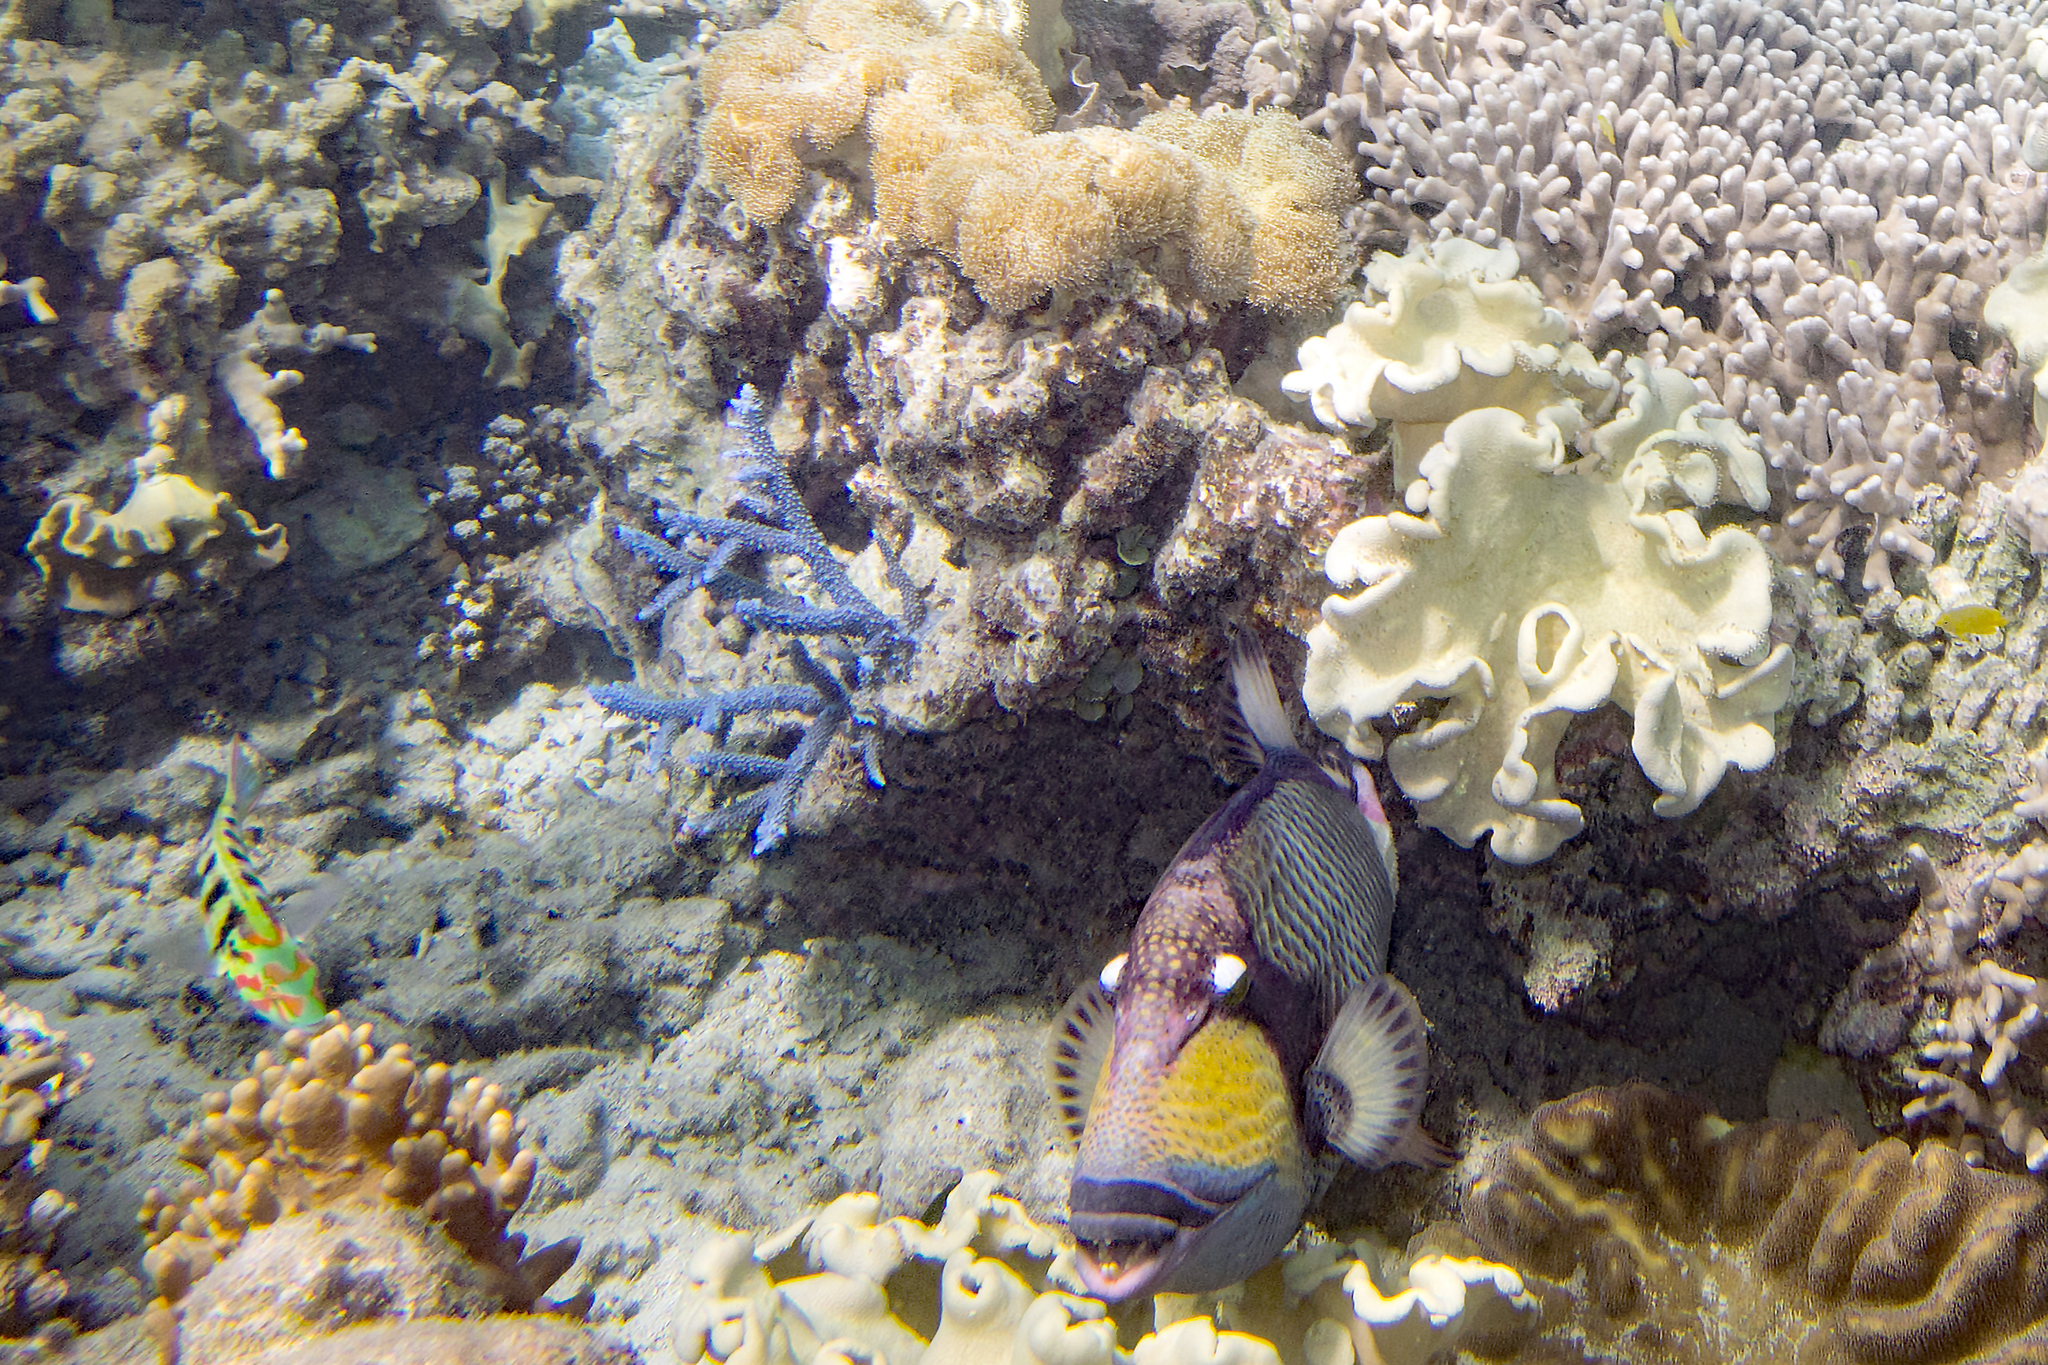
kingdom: Animalia
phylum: Chordata
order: Tetraodontiformes
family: Balistidae
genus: Balistoides
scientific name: Balistoides viridescens
